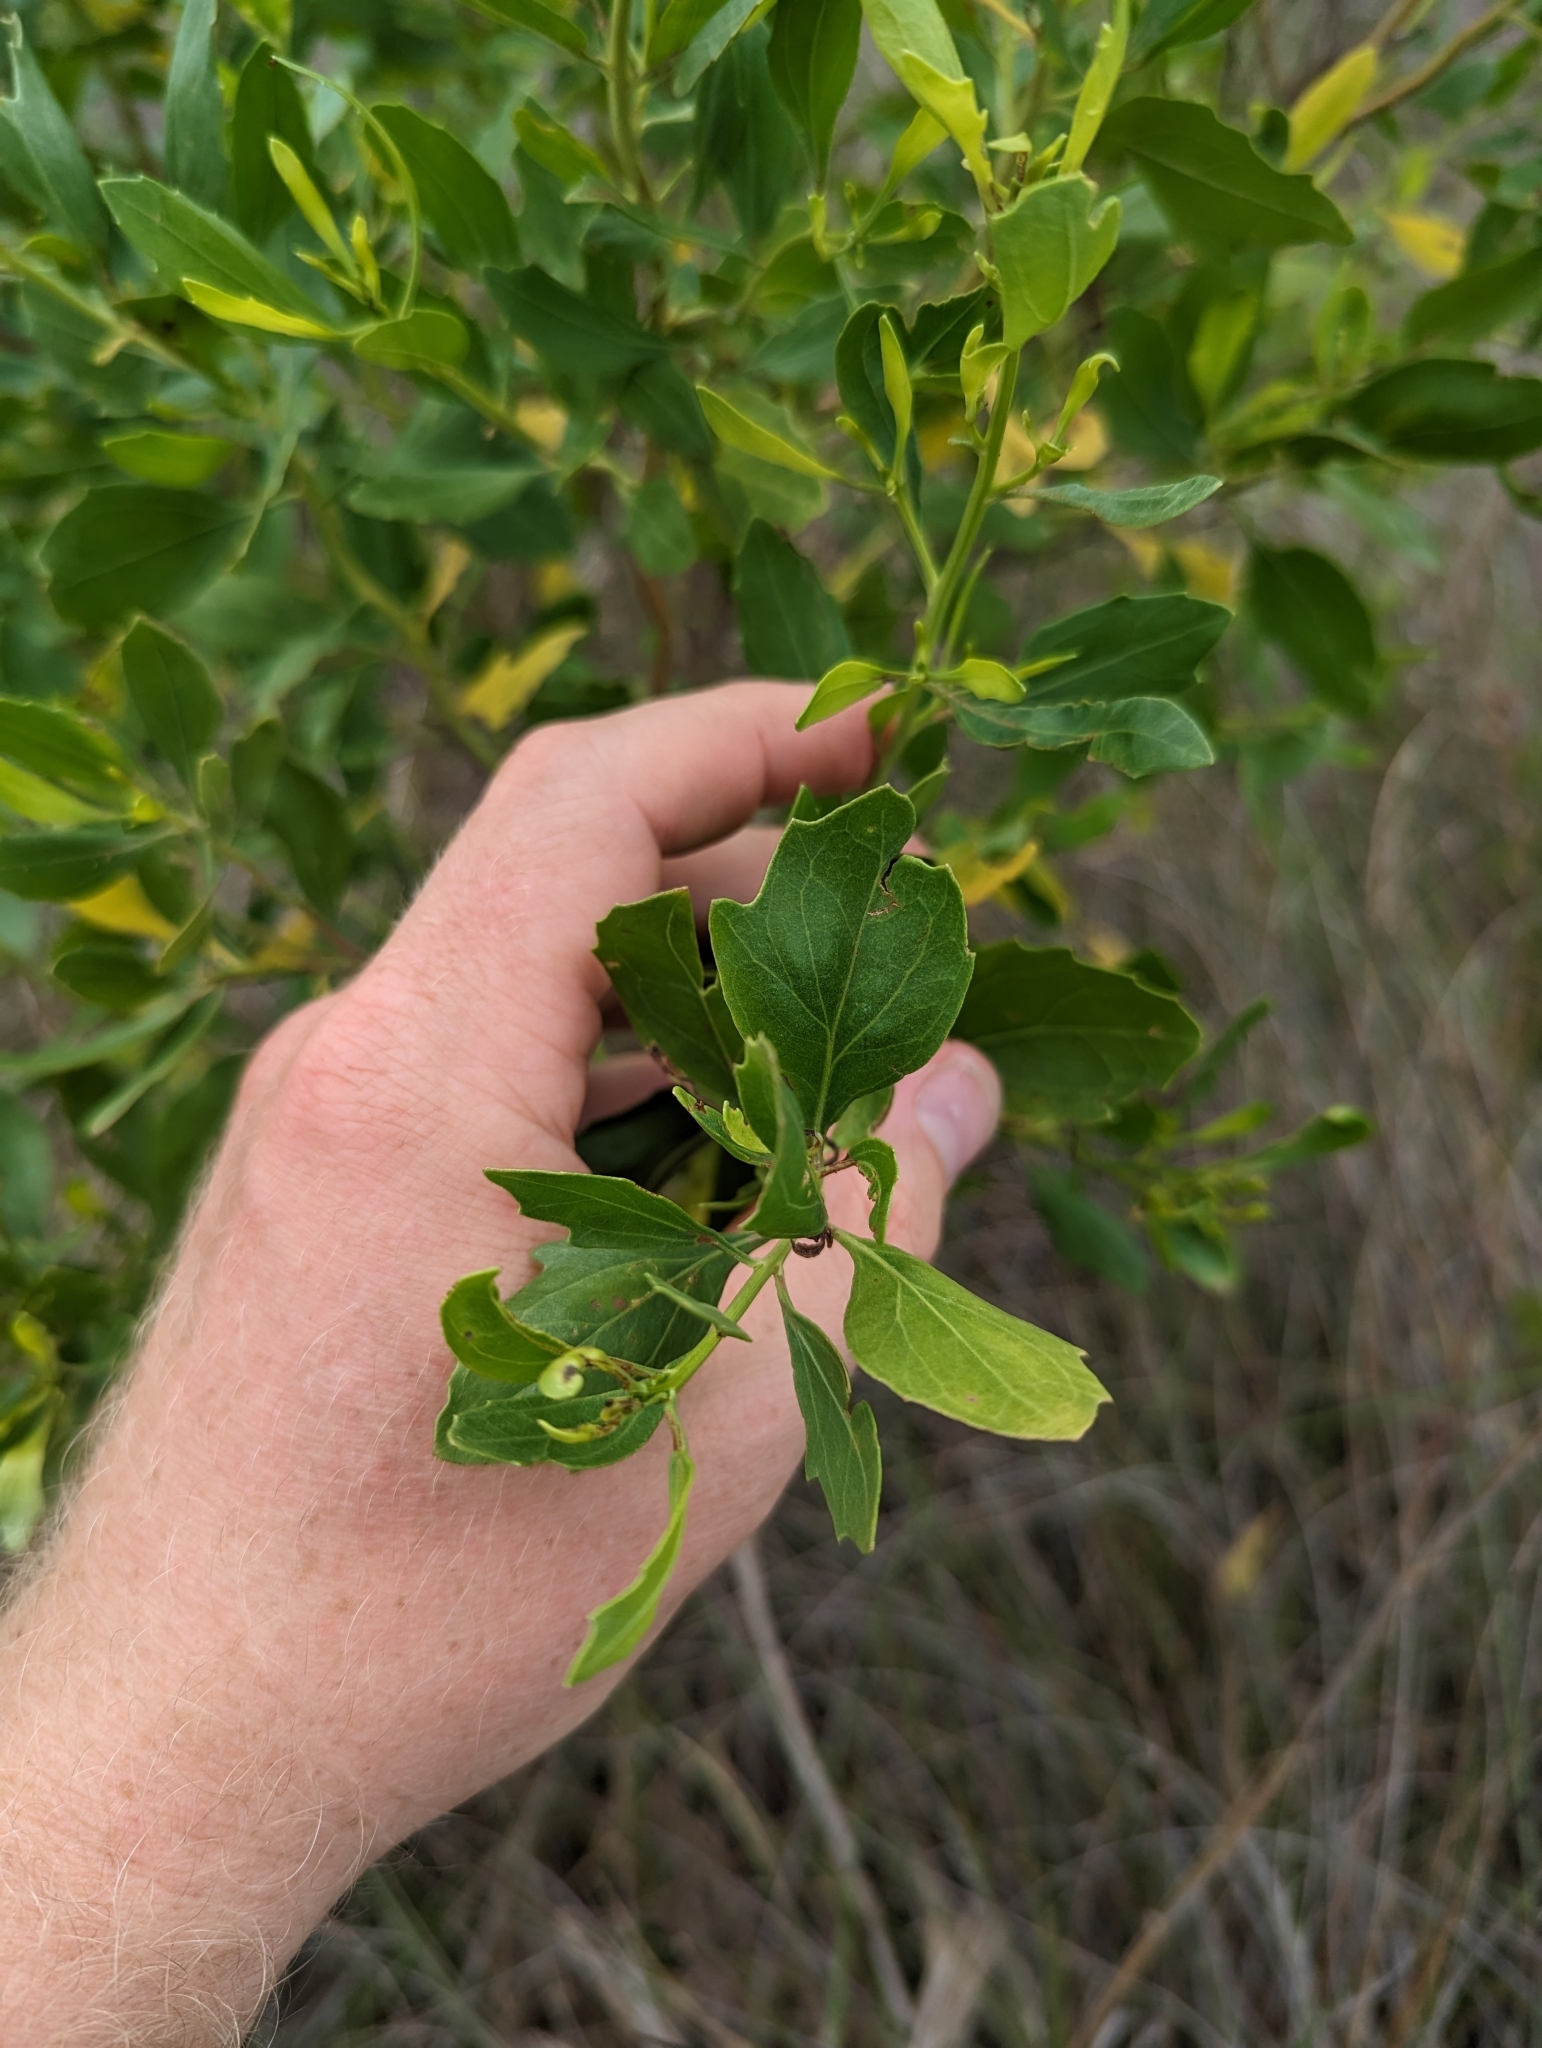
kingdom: Plantae
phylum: Tracheophyta
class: Magnoliopsida
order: Asterales
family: Asteraceae
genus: Baccharis
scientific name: Baccharis halimifolia
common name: Eastern baccharis
